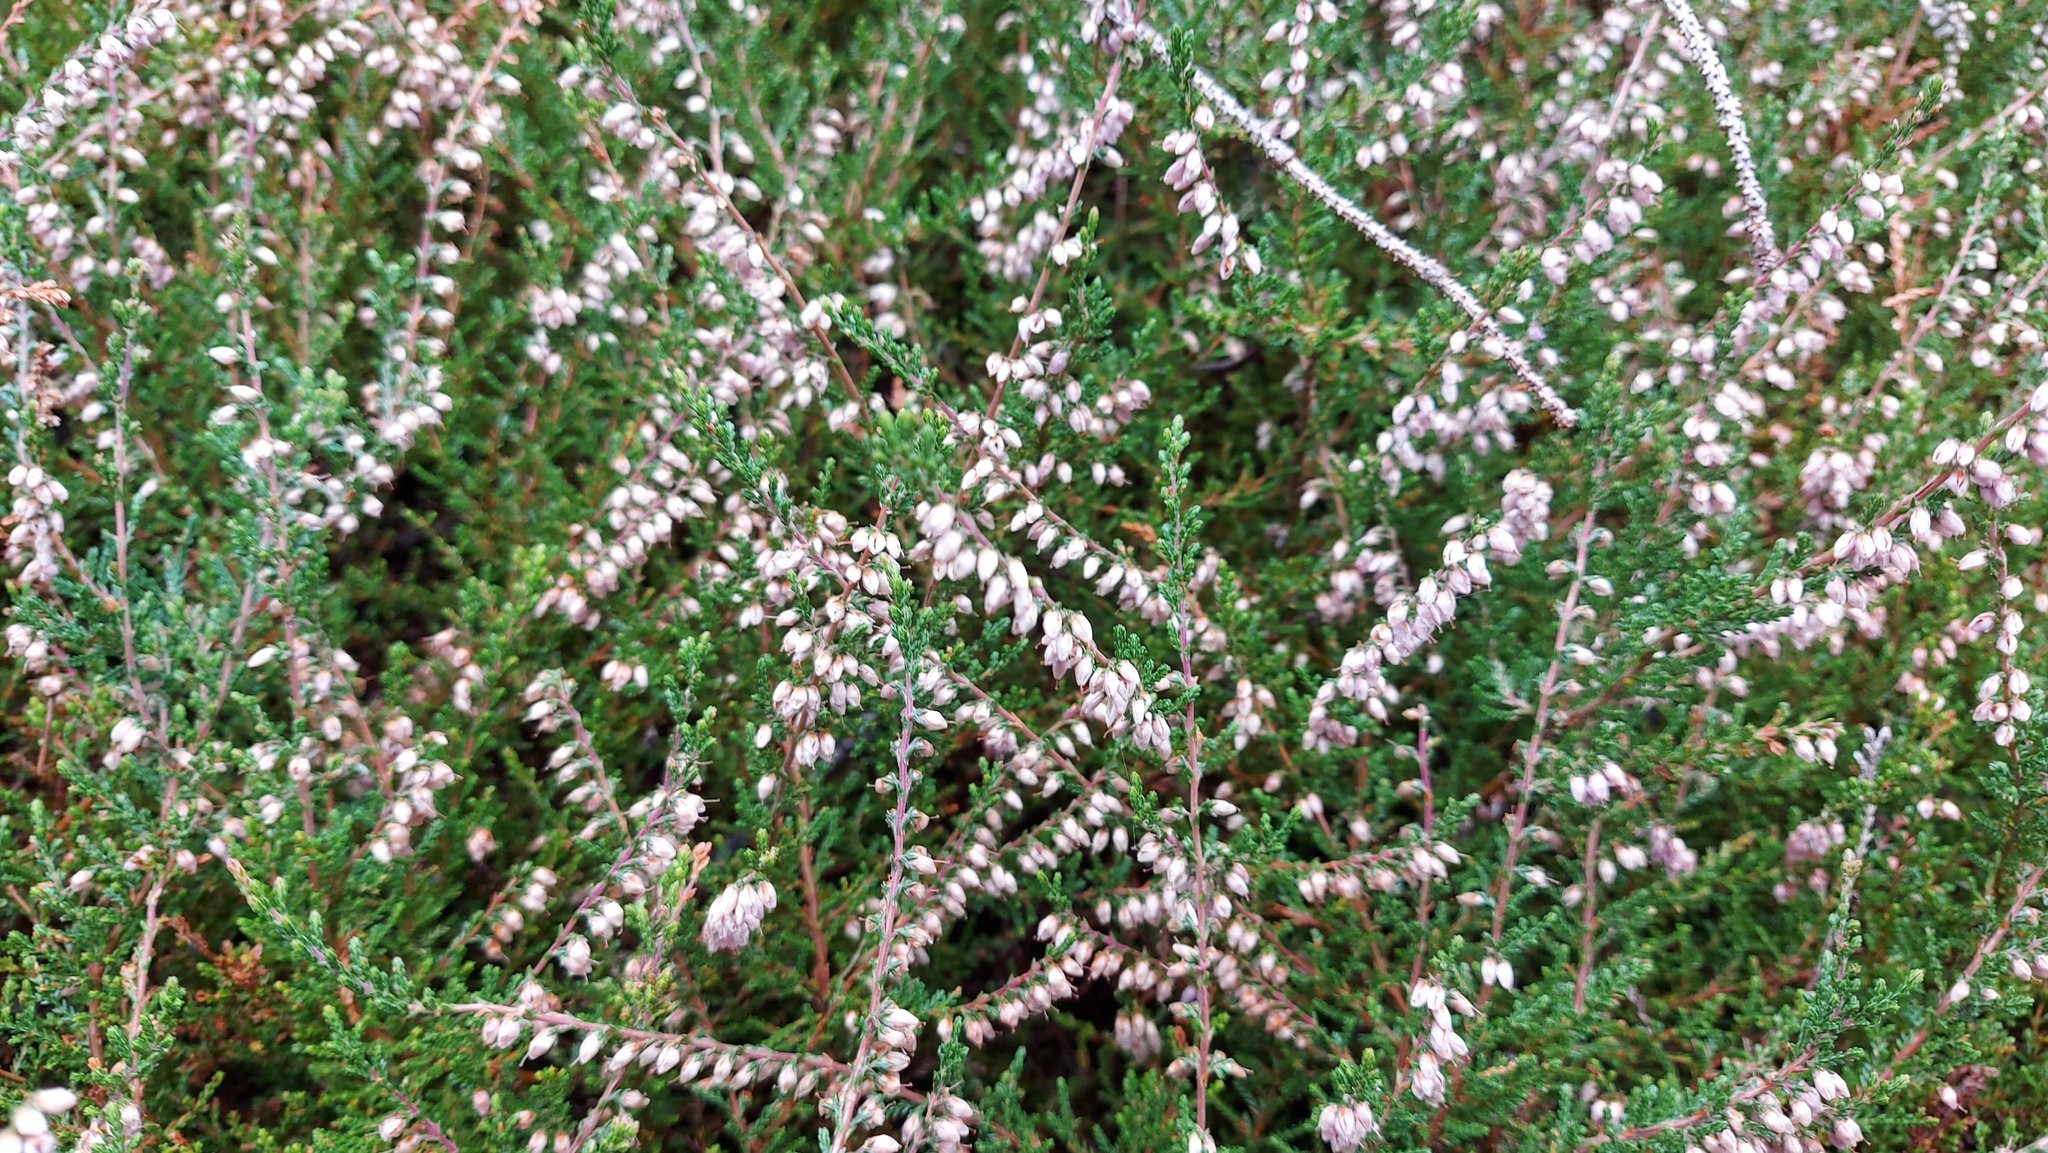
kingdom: Plantae
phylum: Tracheophyta
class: Magnoliopsida
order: Ericales
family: Ericaceae
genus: Calluna
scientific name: Calluna vulgaris
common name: Heather
